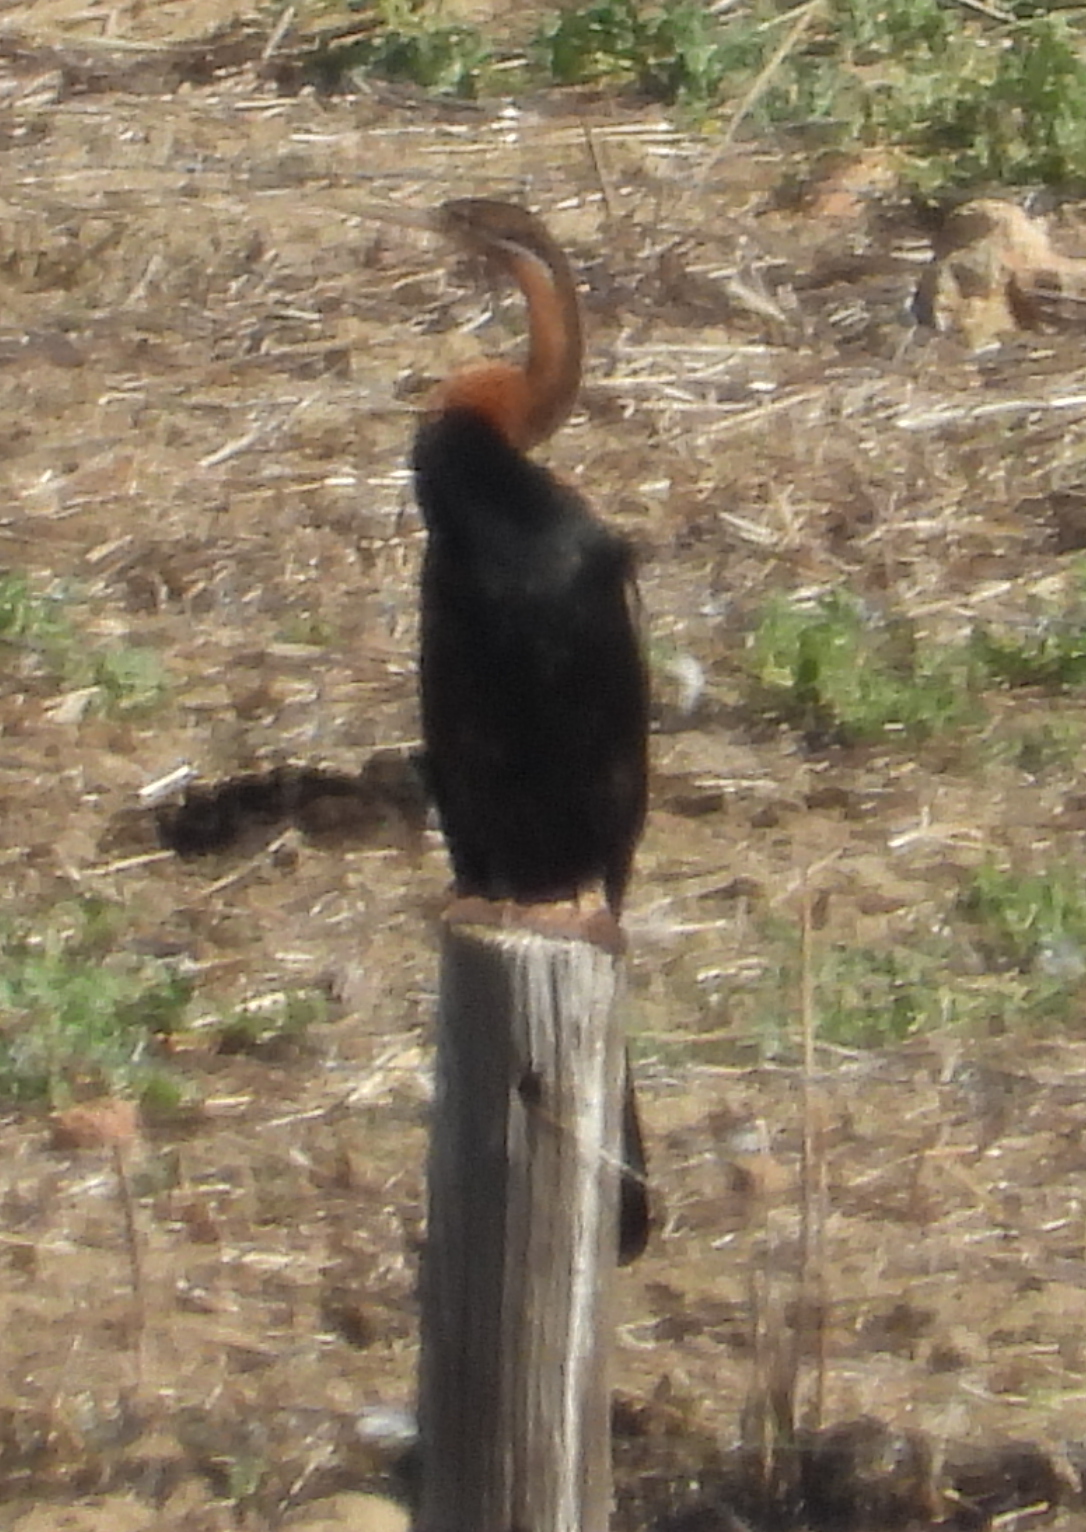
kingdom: Animalia
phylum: Chordata
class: Aves
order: Suliformes
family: Anhingidae
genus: Anhinga
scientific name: Anhinga rufa
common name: African darter
